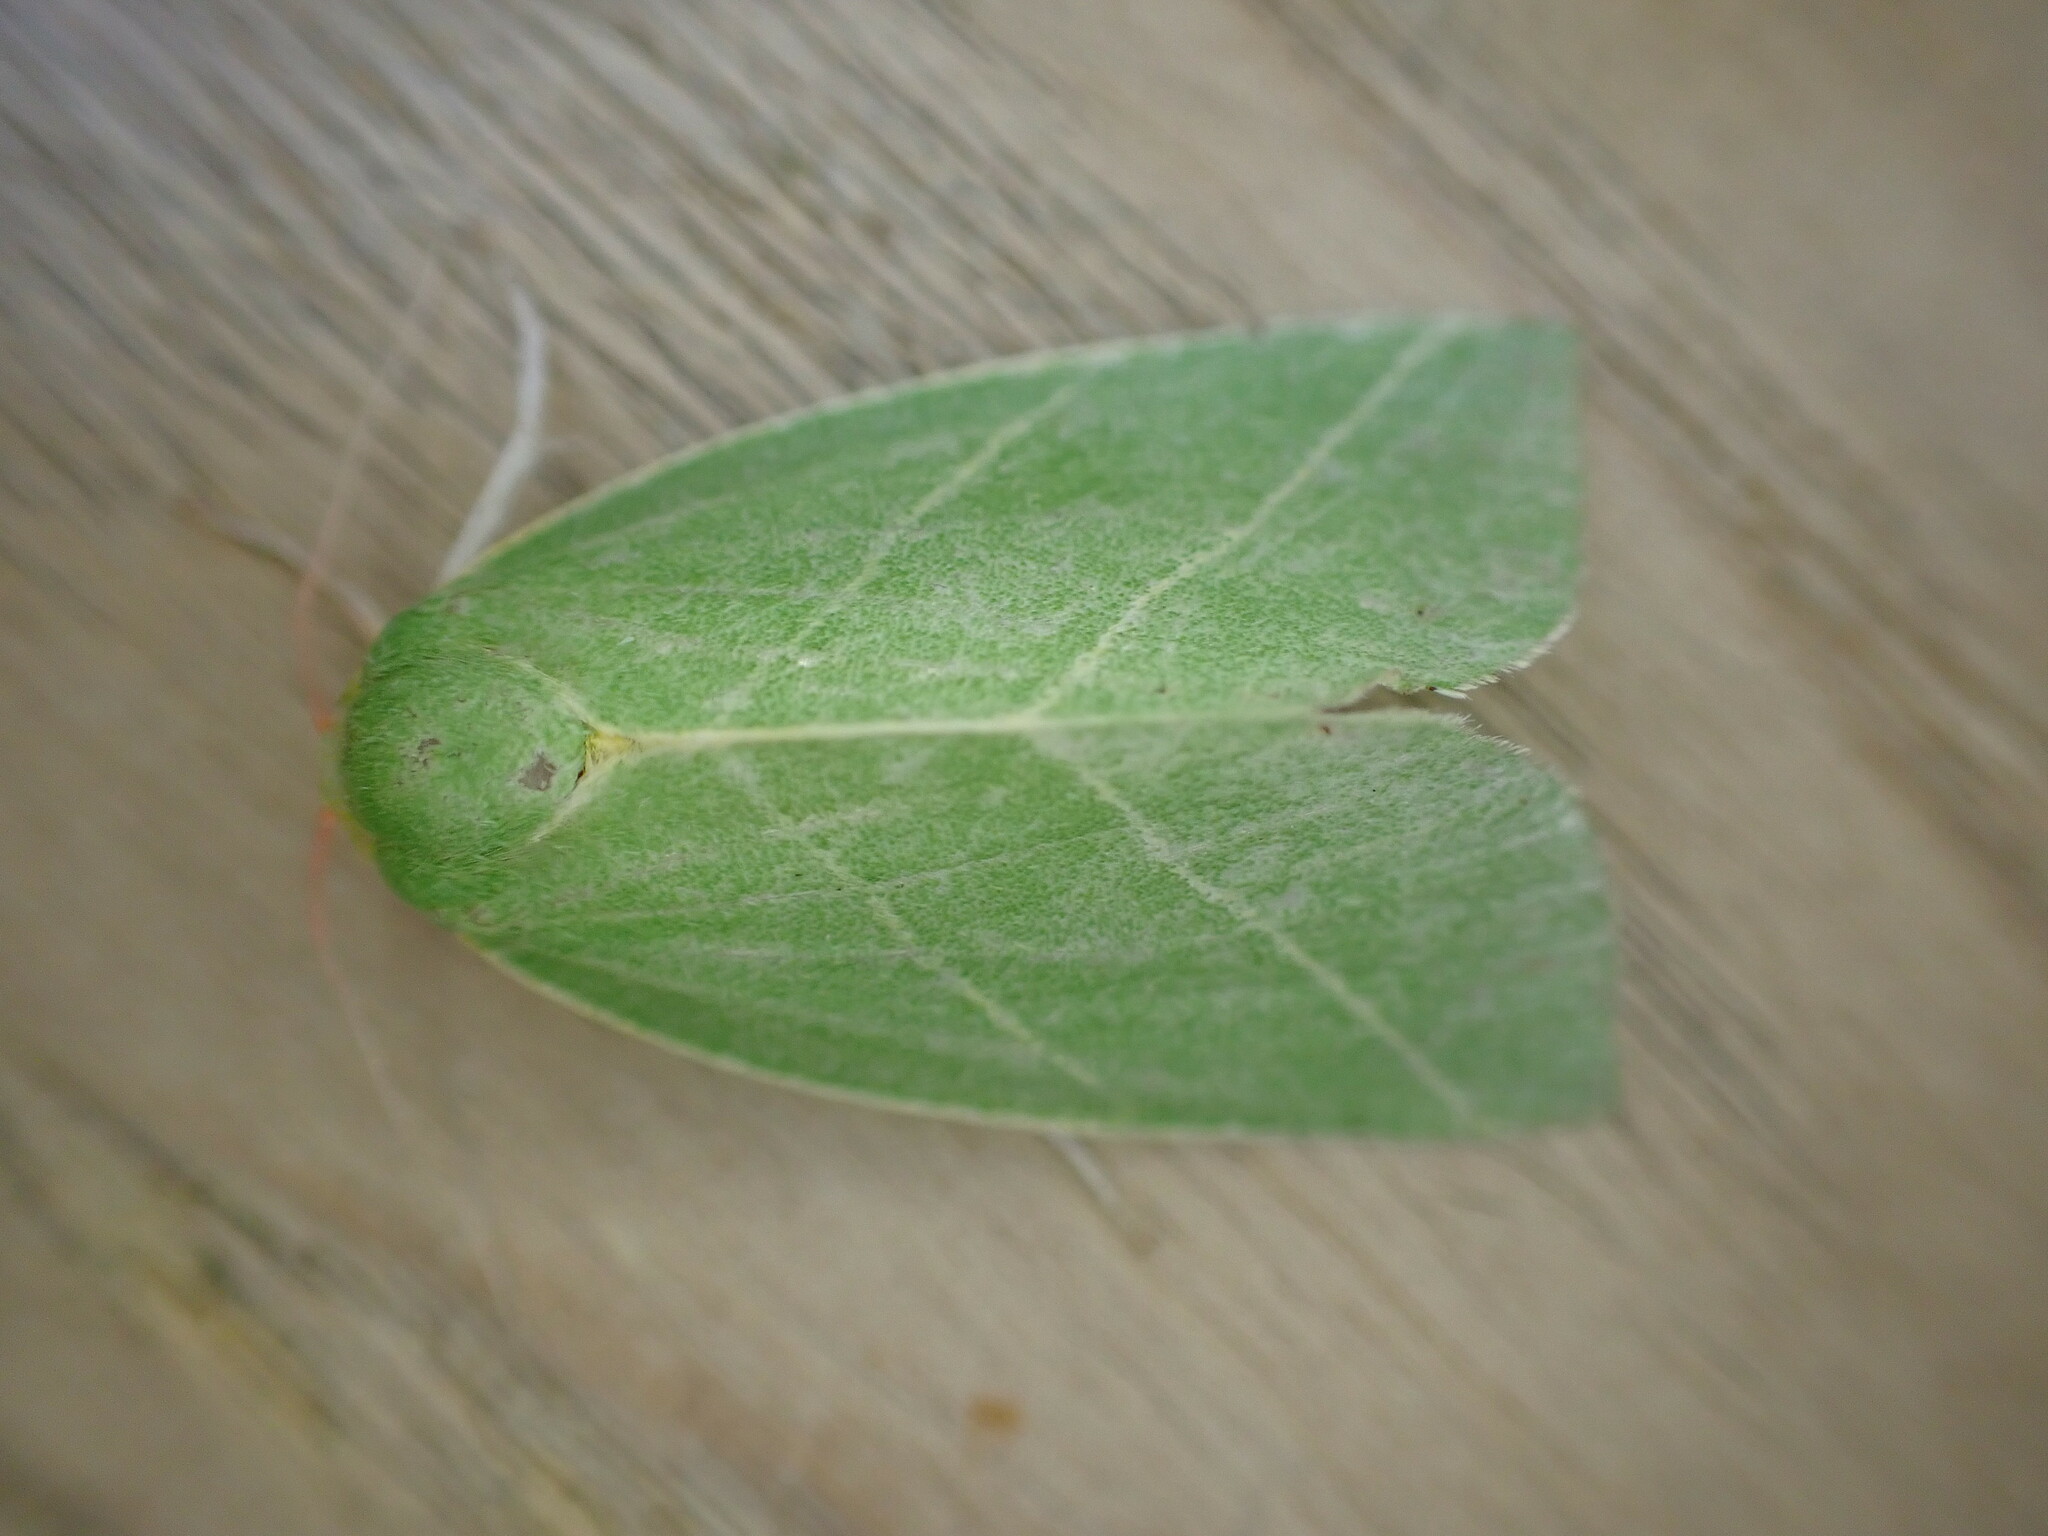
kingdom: Animalia
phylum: Arthropoda
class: Insecta
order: Lepidoptera
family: Nolidae
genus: Bena
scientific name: Bena bicolorana
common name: Scarce silver-lines
